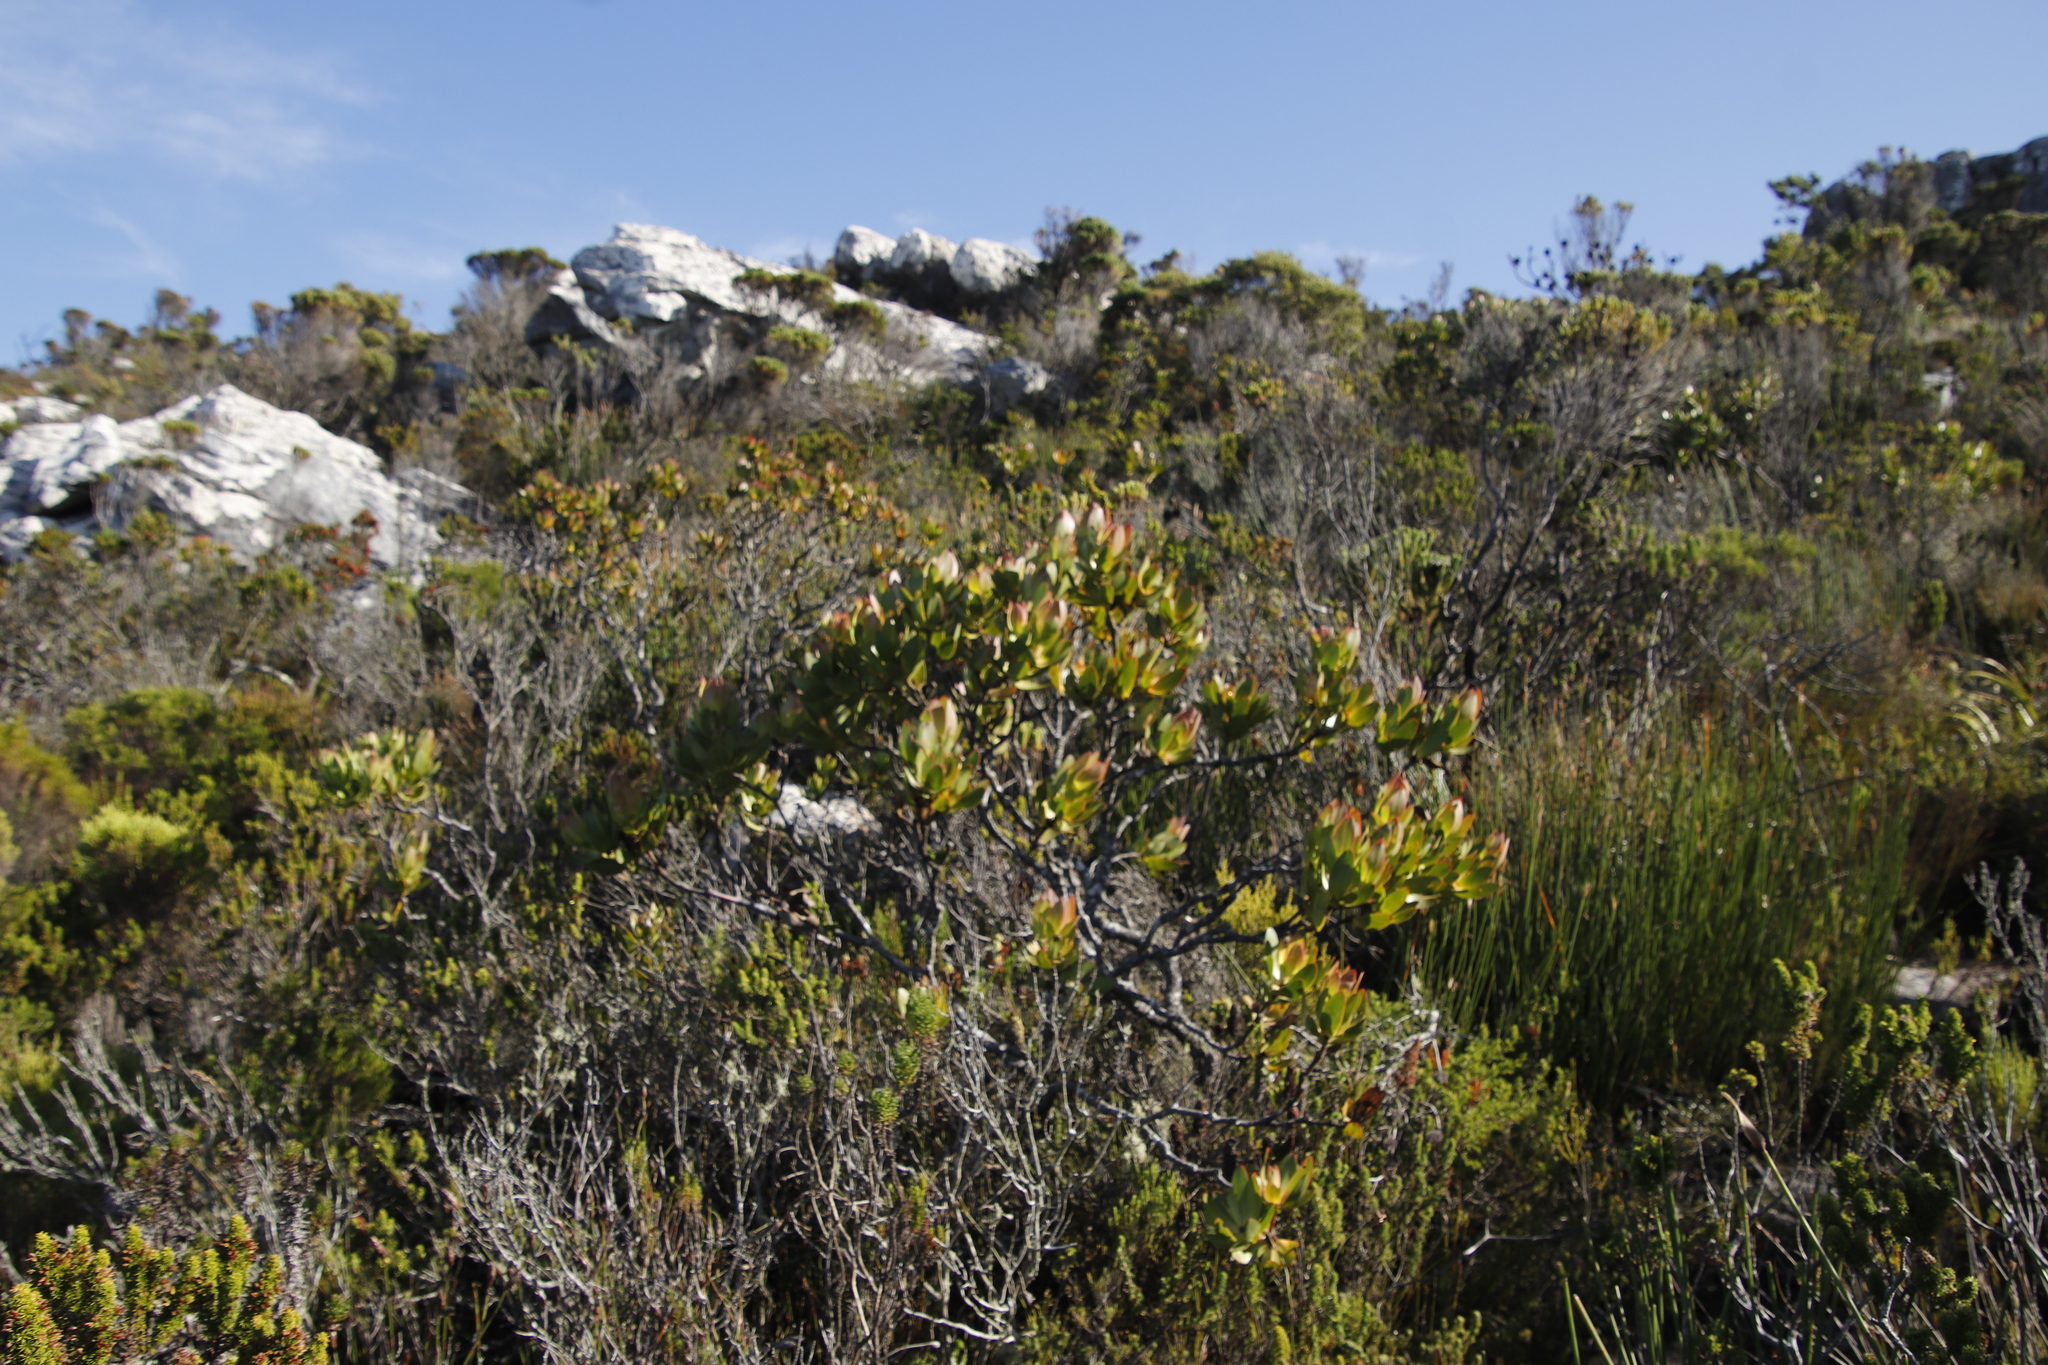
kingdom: Plantae
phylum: Tracheophyta
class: Magnoliopsida
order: Proteales
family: Proteaceae
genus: Leucadendron
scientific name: Leucadendron gandogeri
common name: Broad-leaf conebush
